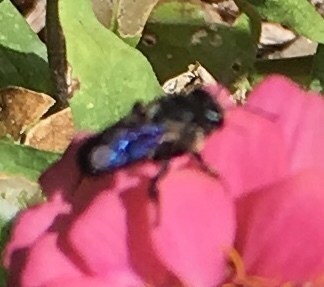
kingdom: Animalia
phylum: Arthropoda
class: Insecta
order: Hymenoptera
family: Megachilidae
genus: Megachile
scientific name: Megachile xylocopoides
